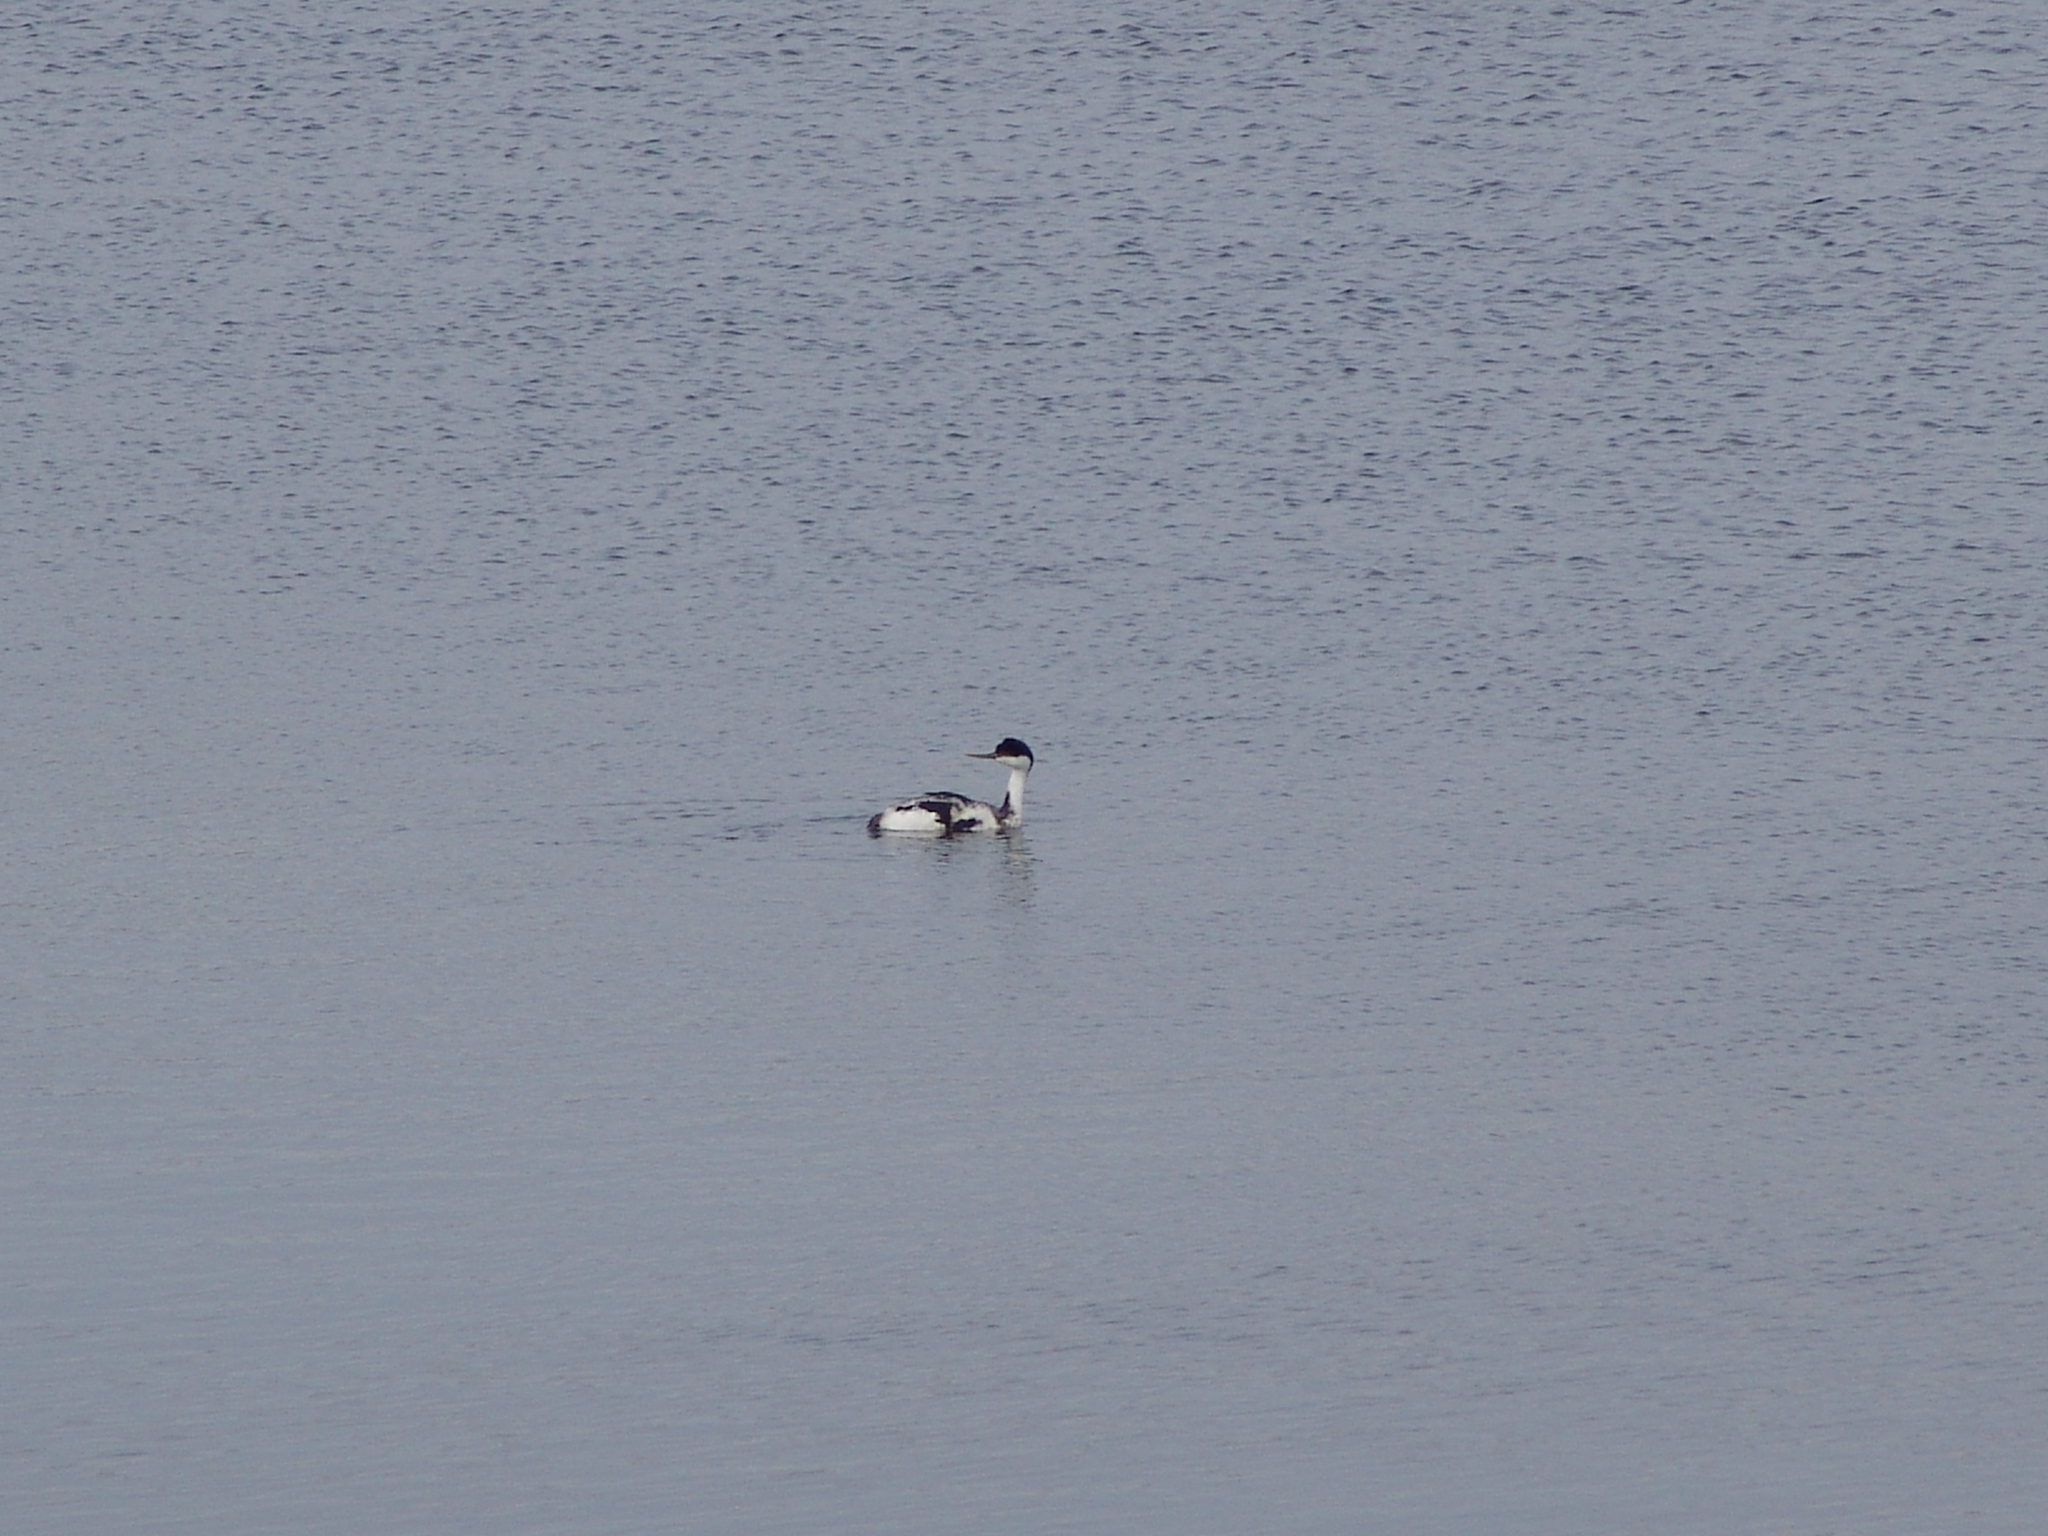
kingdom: Animalia
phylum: Chordata
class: Aves
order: Podicipediformes
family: Podicipedidae
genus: Aechmophorus
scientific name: Aechmophorus occidentalis
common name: Western grebe
